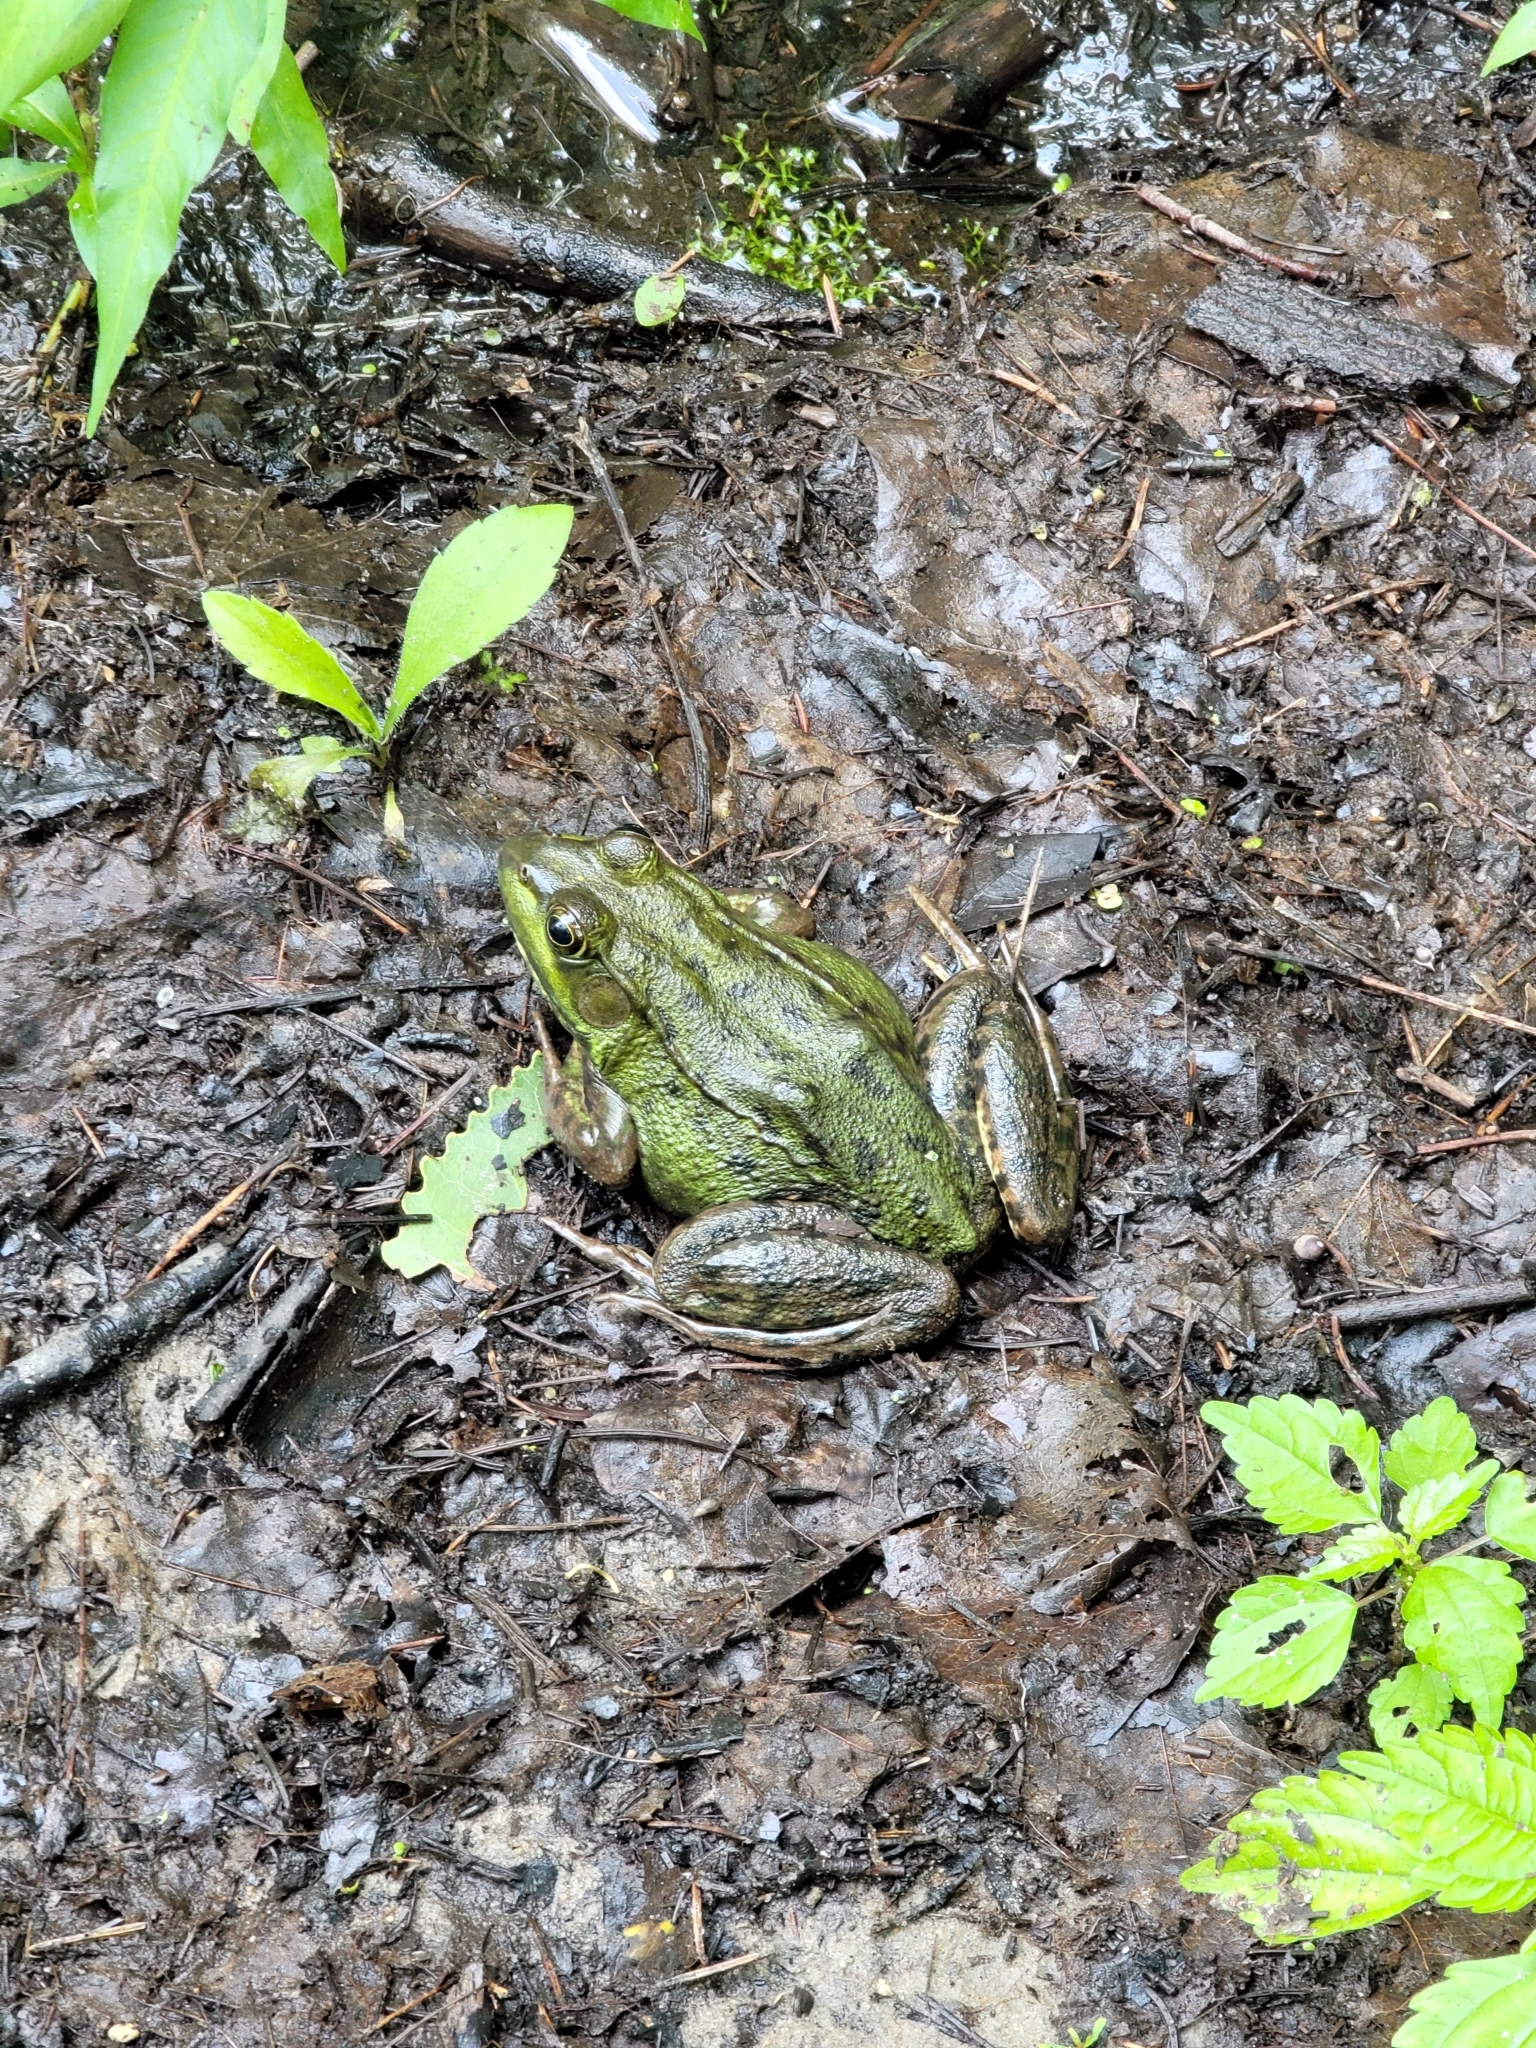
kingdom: Animalia
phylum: Chordata
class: Amphibia
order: Anura
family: Ranidae
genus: Lithobates
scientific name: Lithobates clamitans
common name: Green frog
